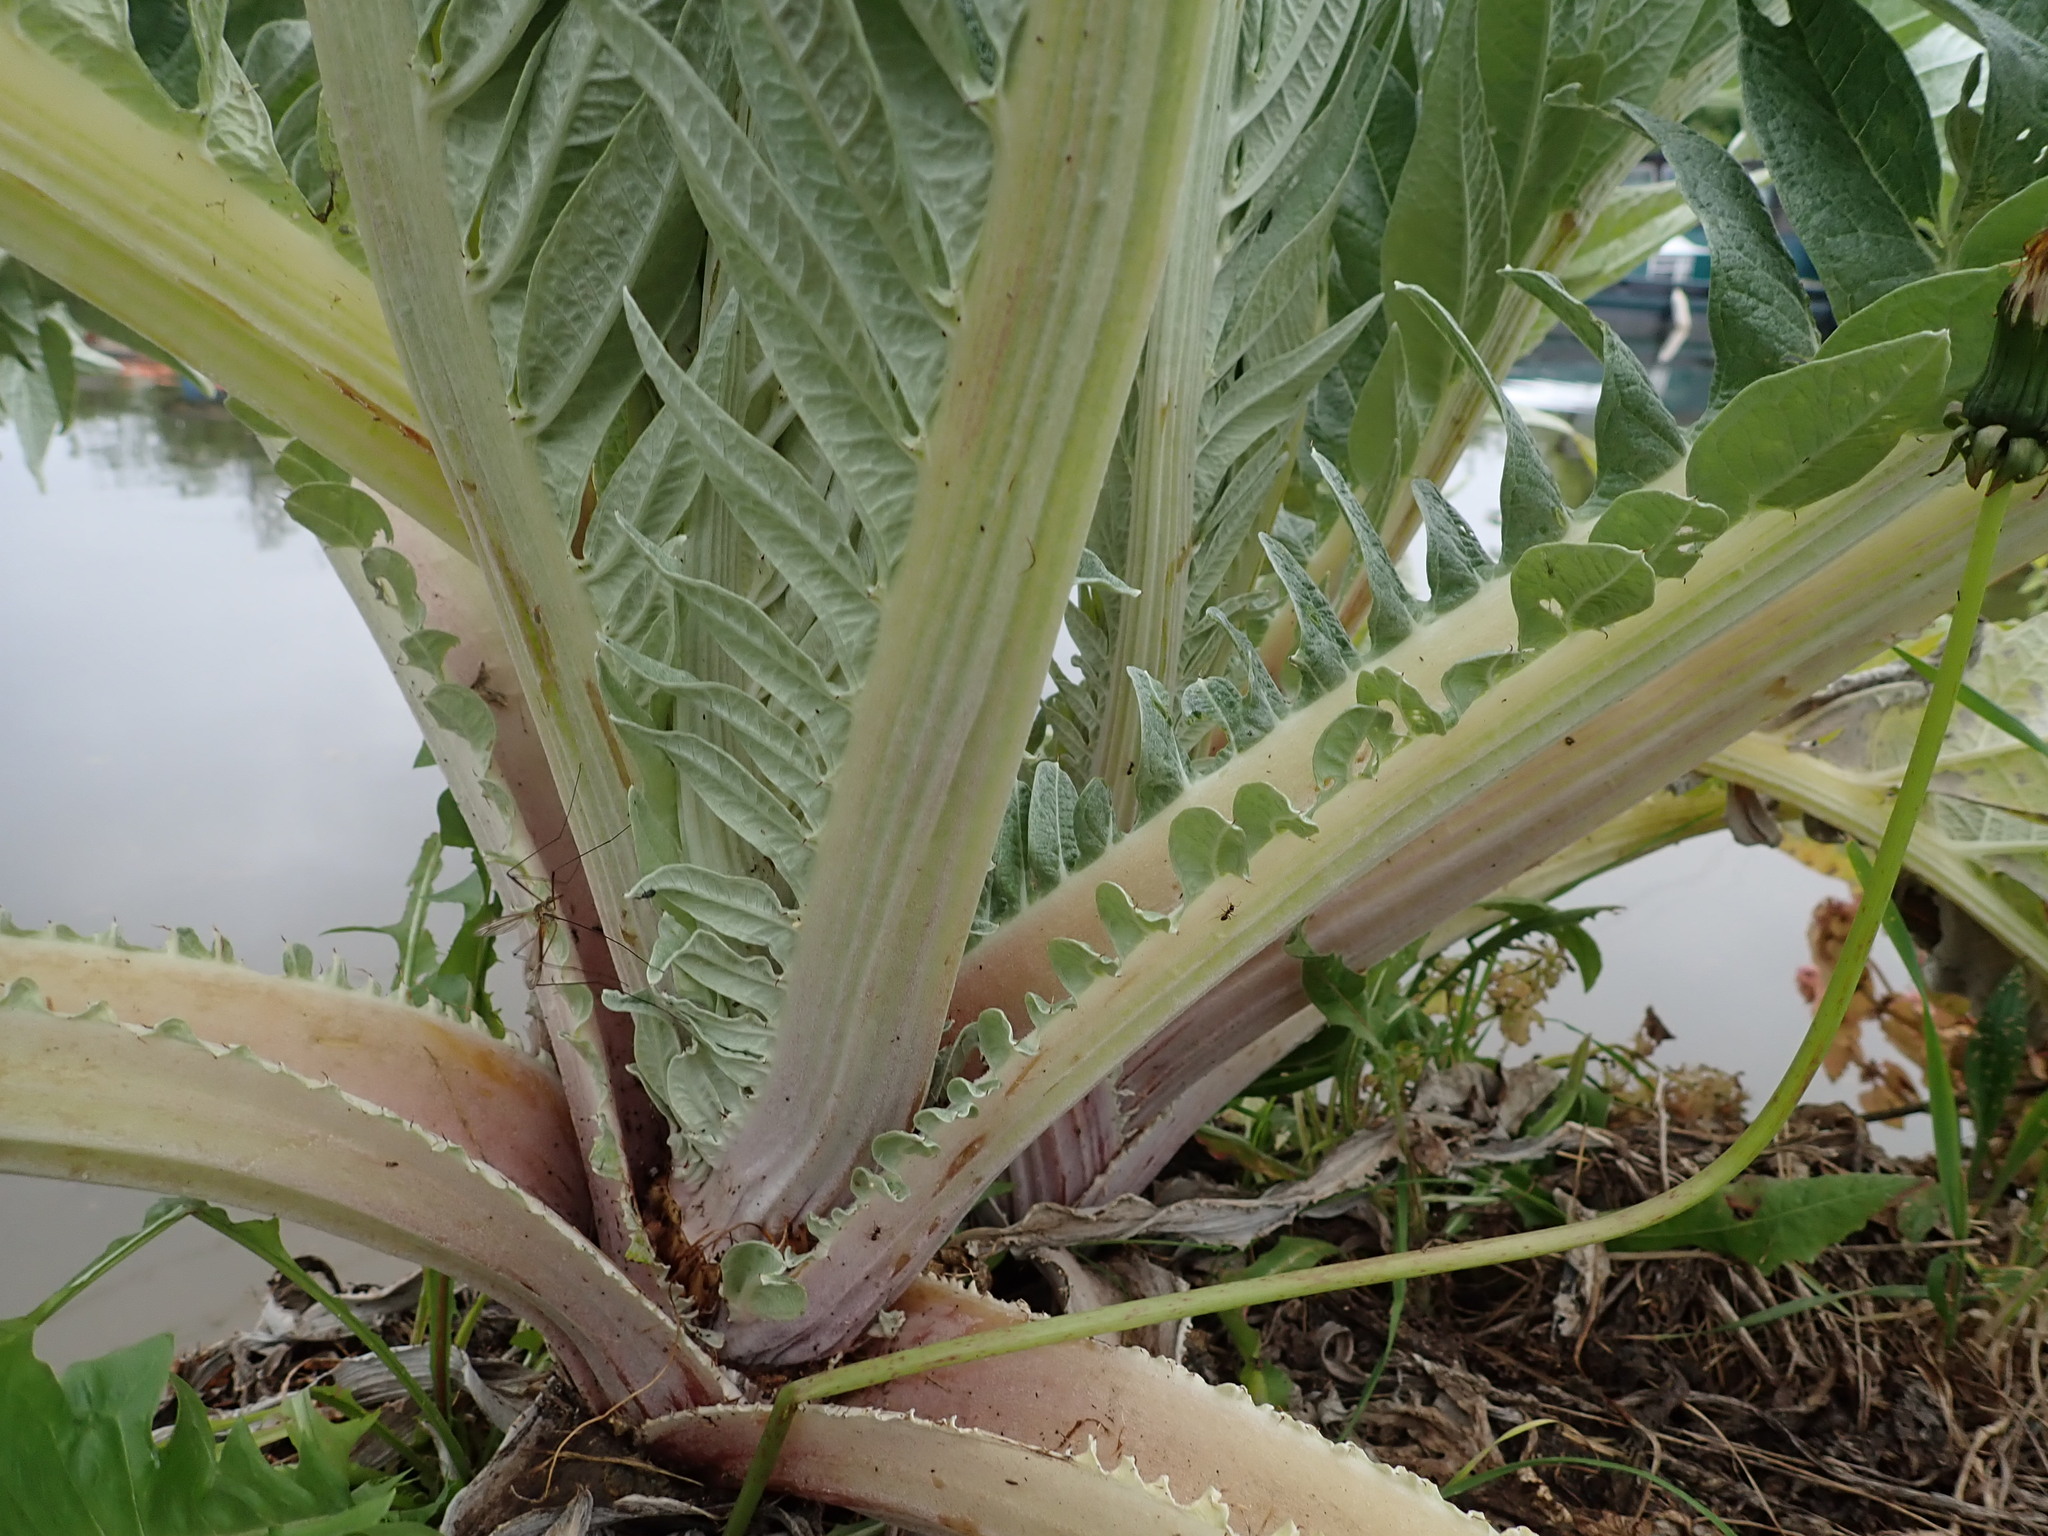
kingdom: Plantae
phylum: Tracheophyta
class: Magnoliopsida
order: Asterales
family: Asteraceae
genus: Cynara
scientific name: Cynara cardunculus
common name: Globe artichoke
